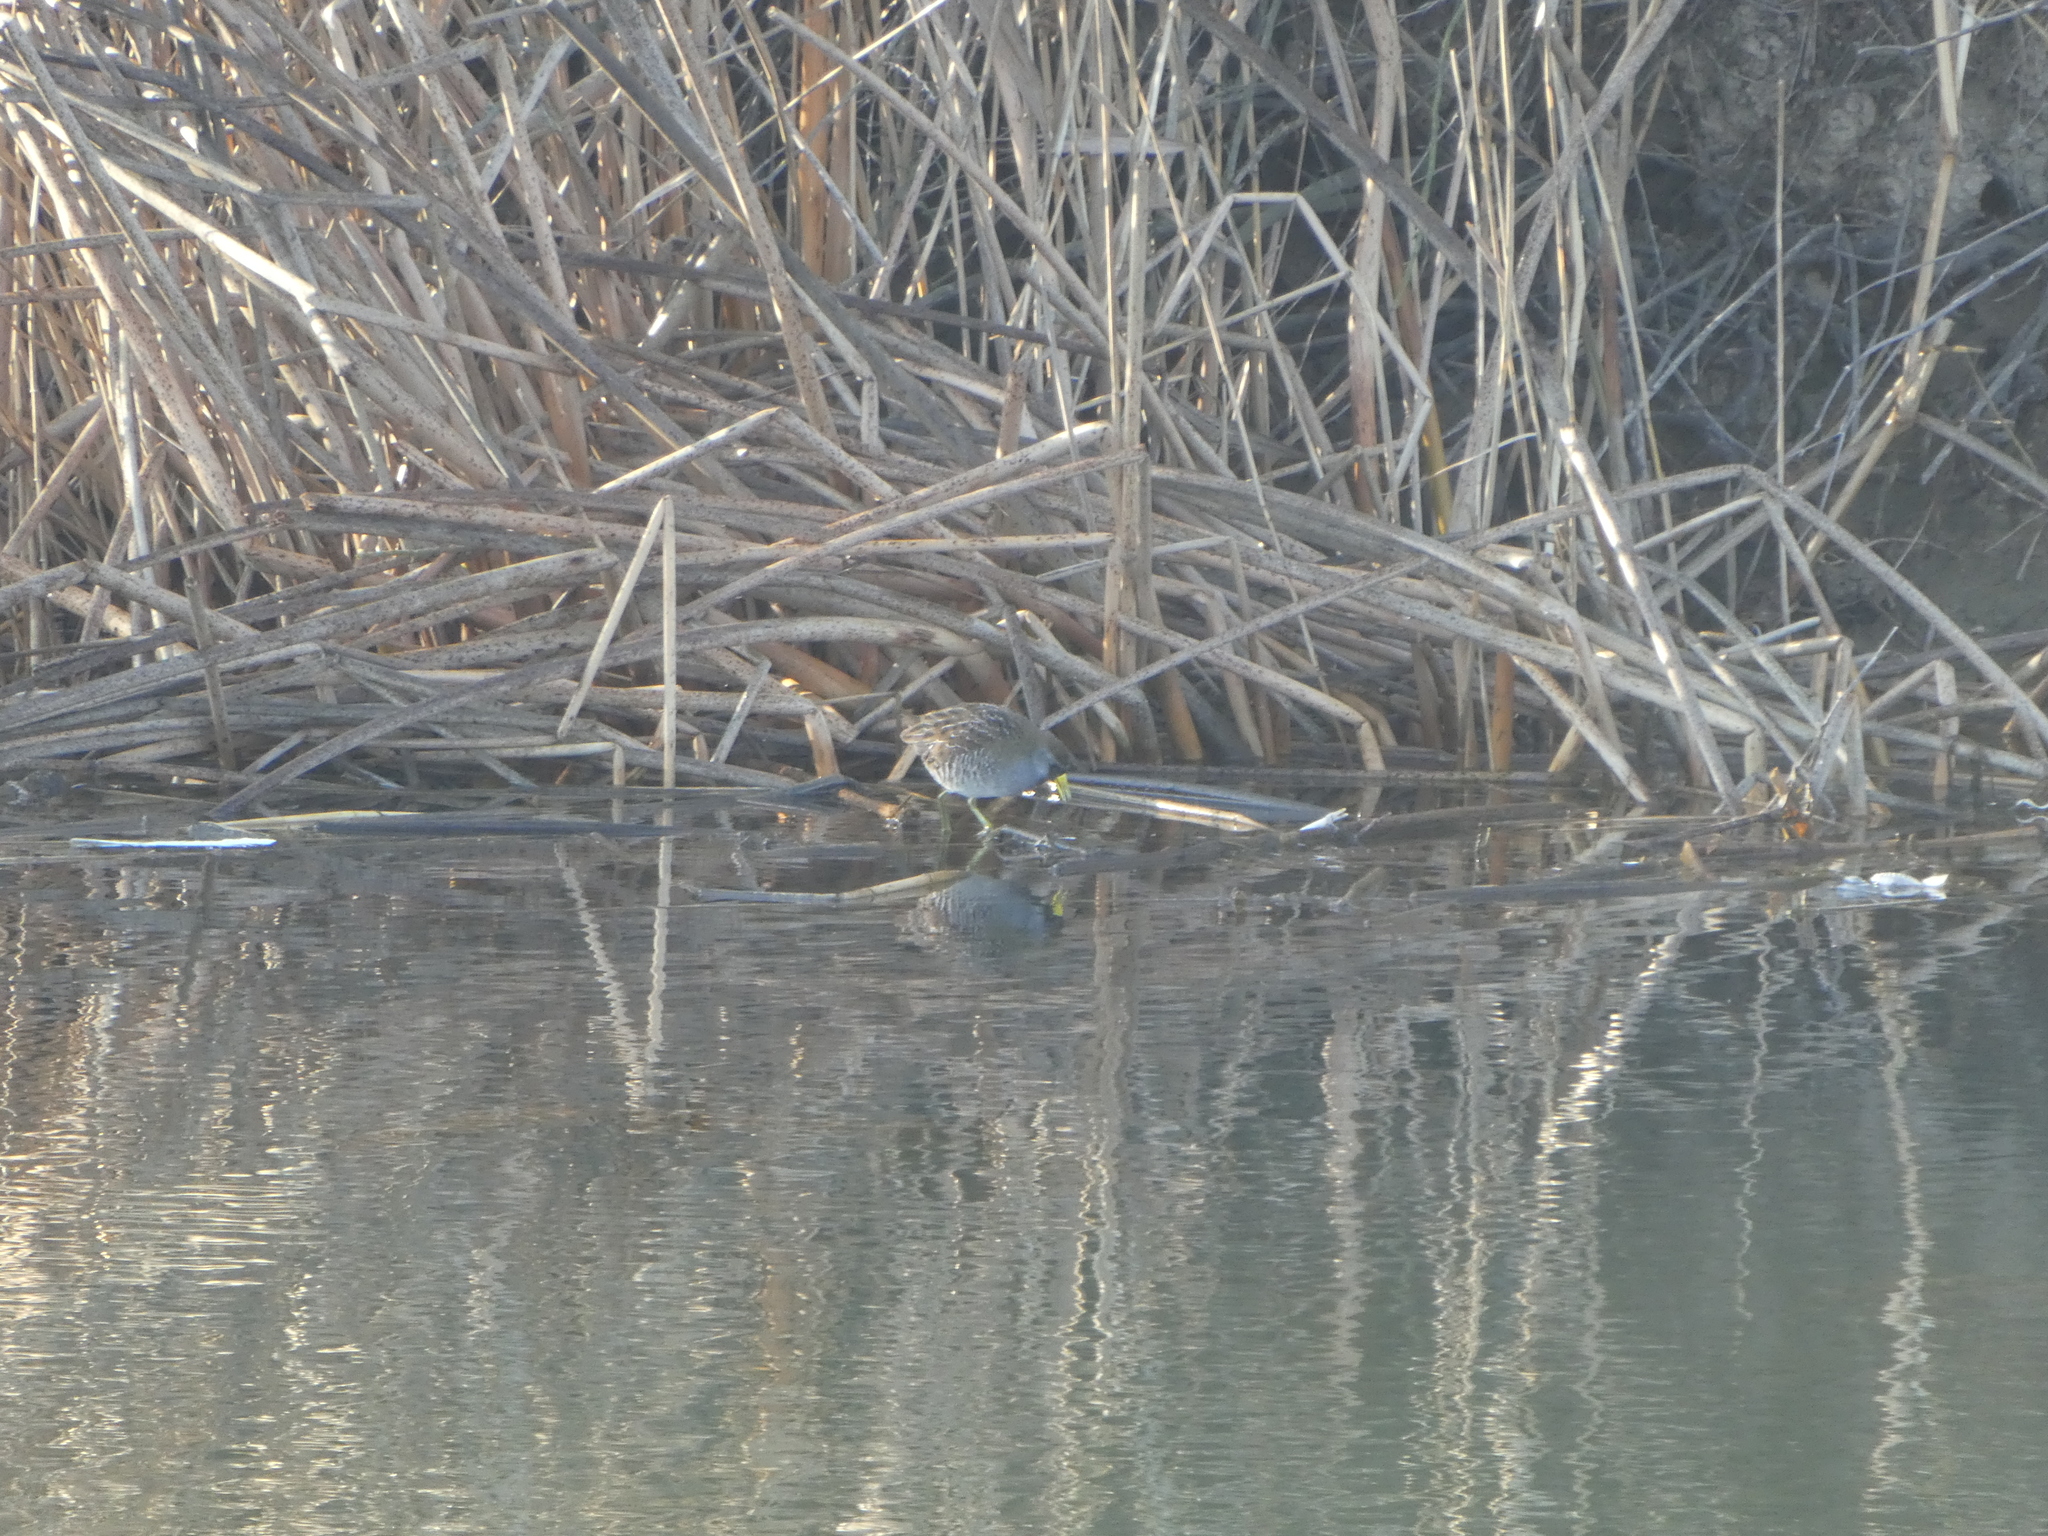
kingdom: Animalia
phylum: Chordata
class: Aves
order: Gruiformes
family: Rallidae
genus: Porzana
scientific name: Porzana carolina
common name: Sora
